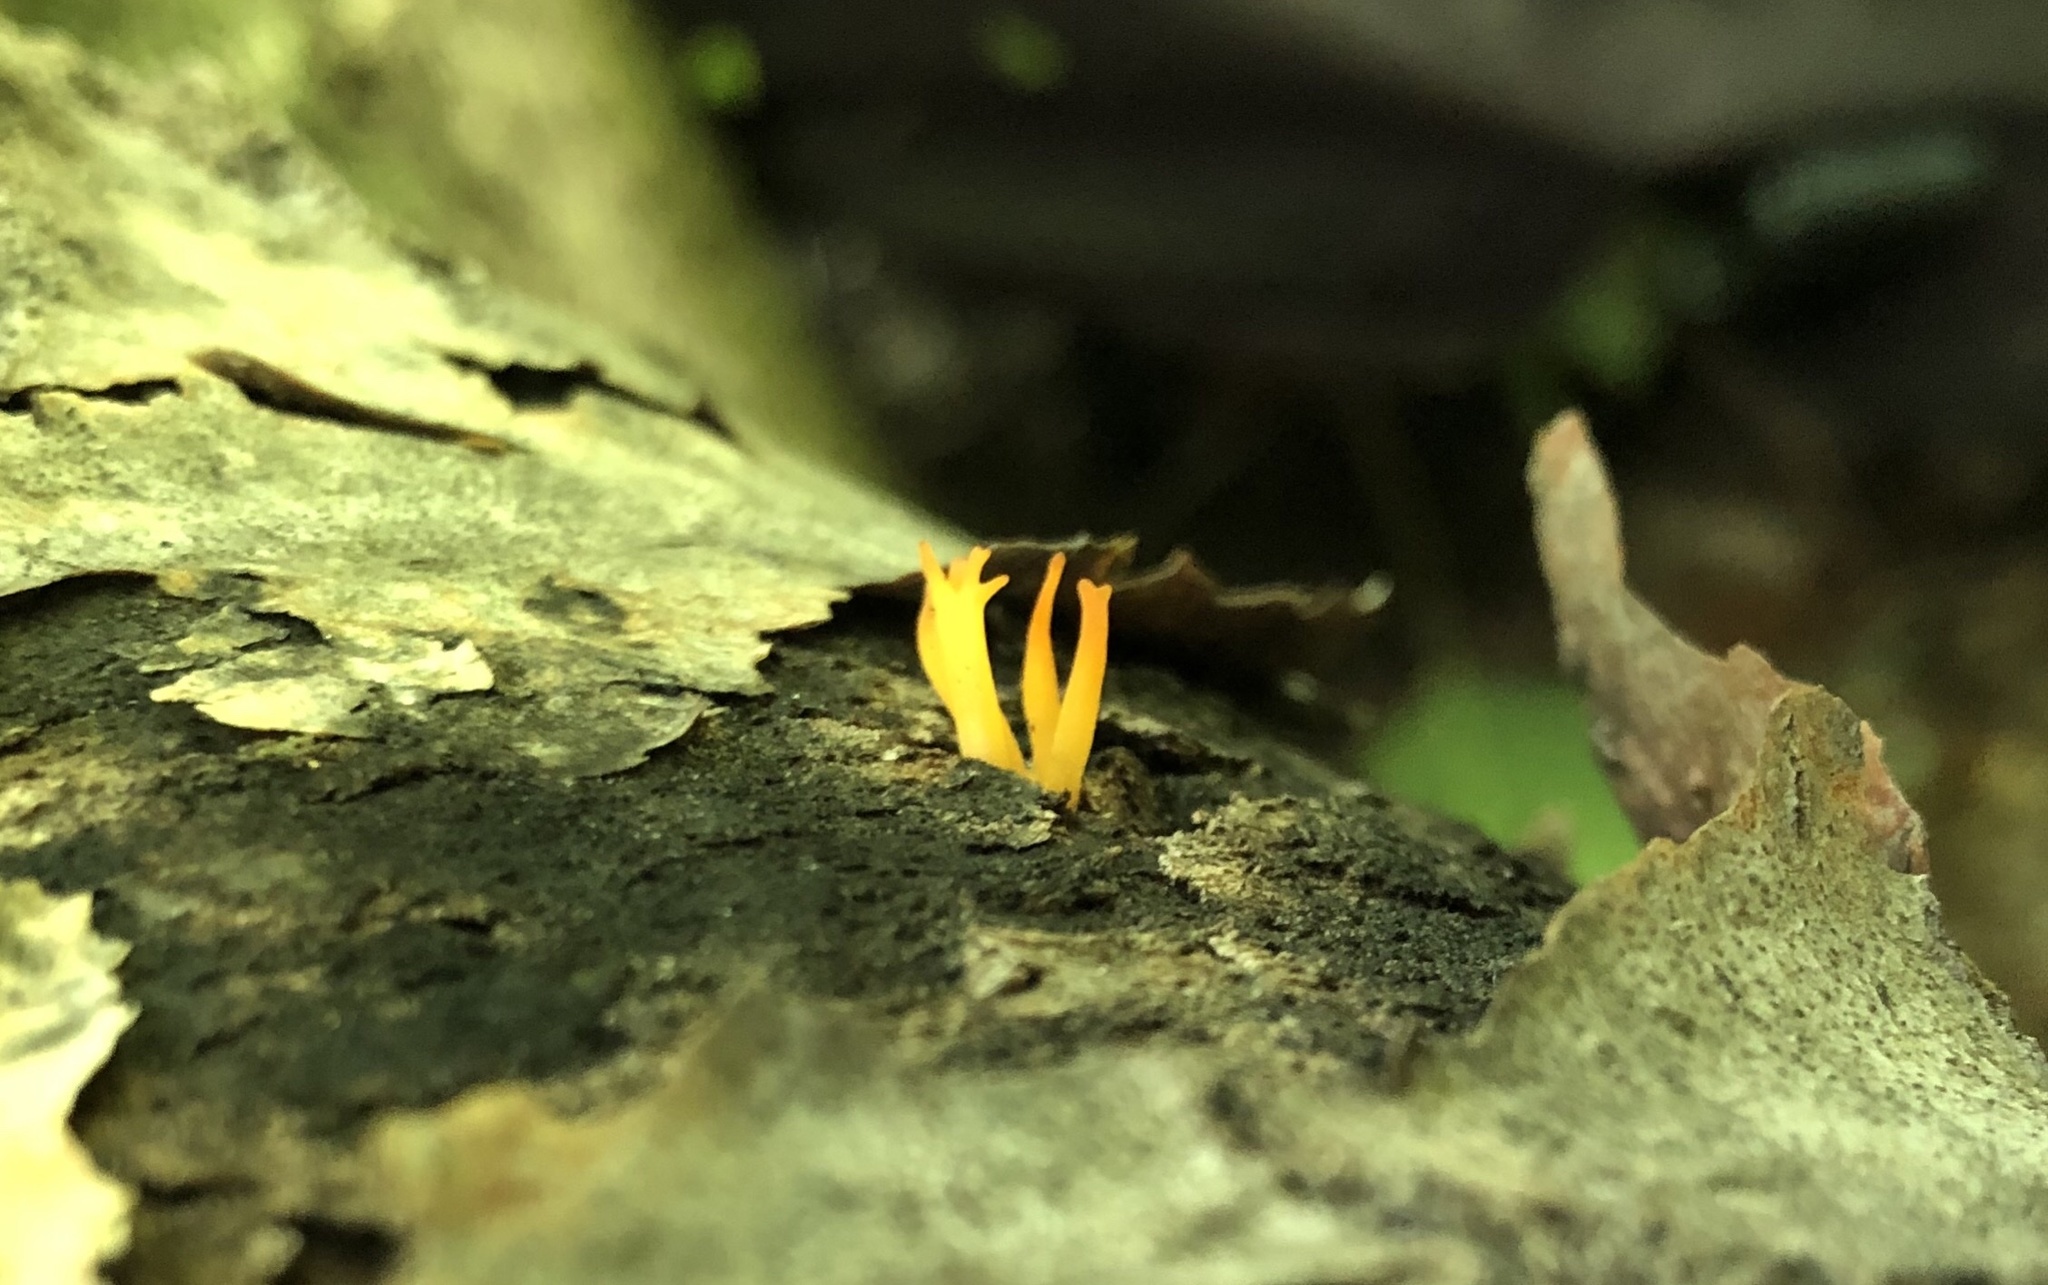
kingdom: Fungi
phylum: Basidiomycota
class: Dacrymycetes
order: Dacrymycetales
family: Dacrymycetaceae
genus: Calocera
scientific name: Calocera cornea
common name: Small stagshorn
